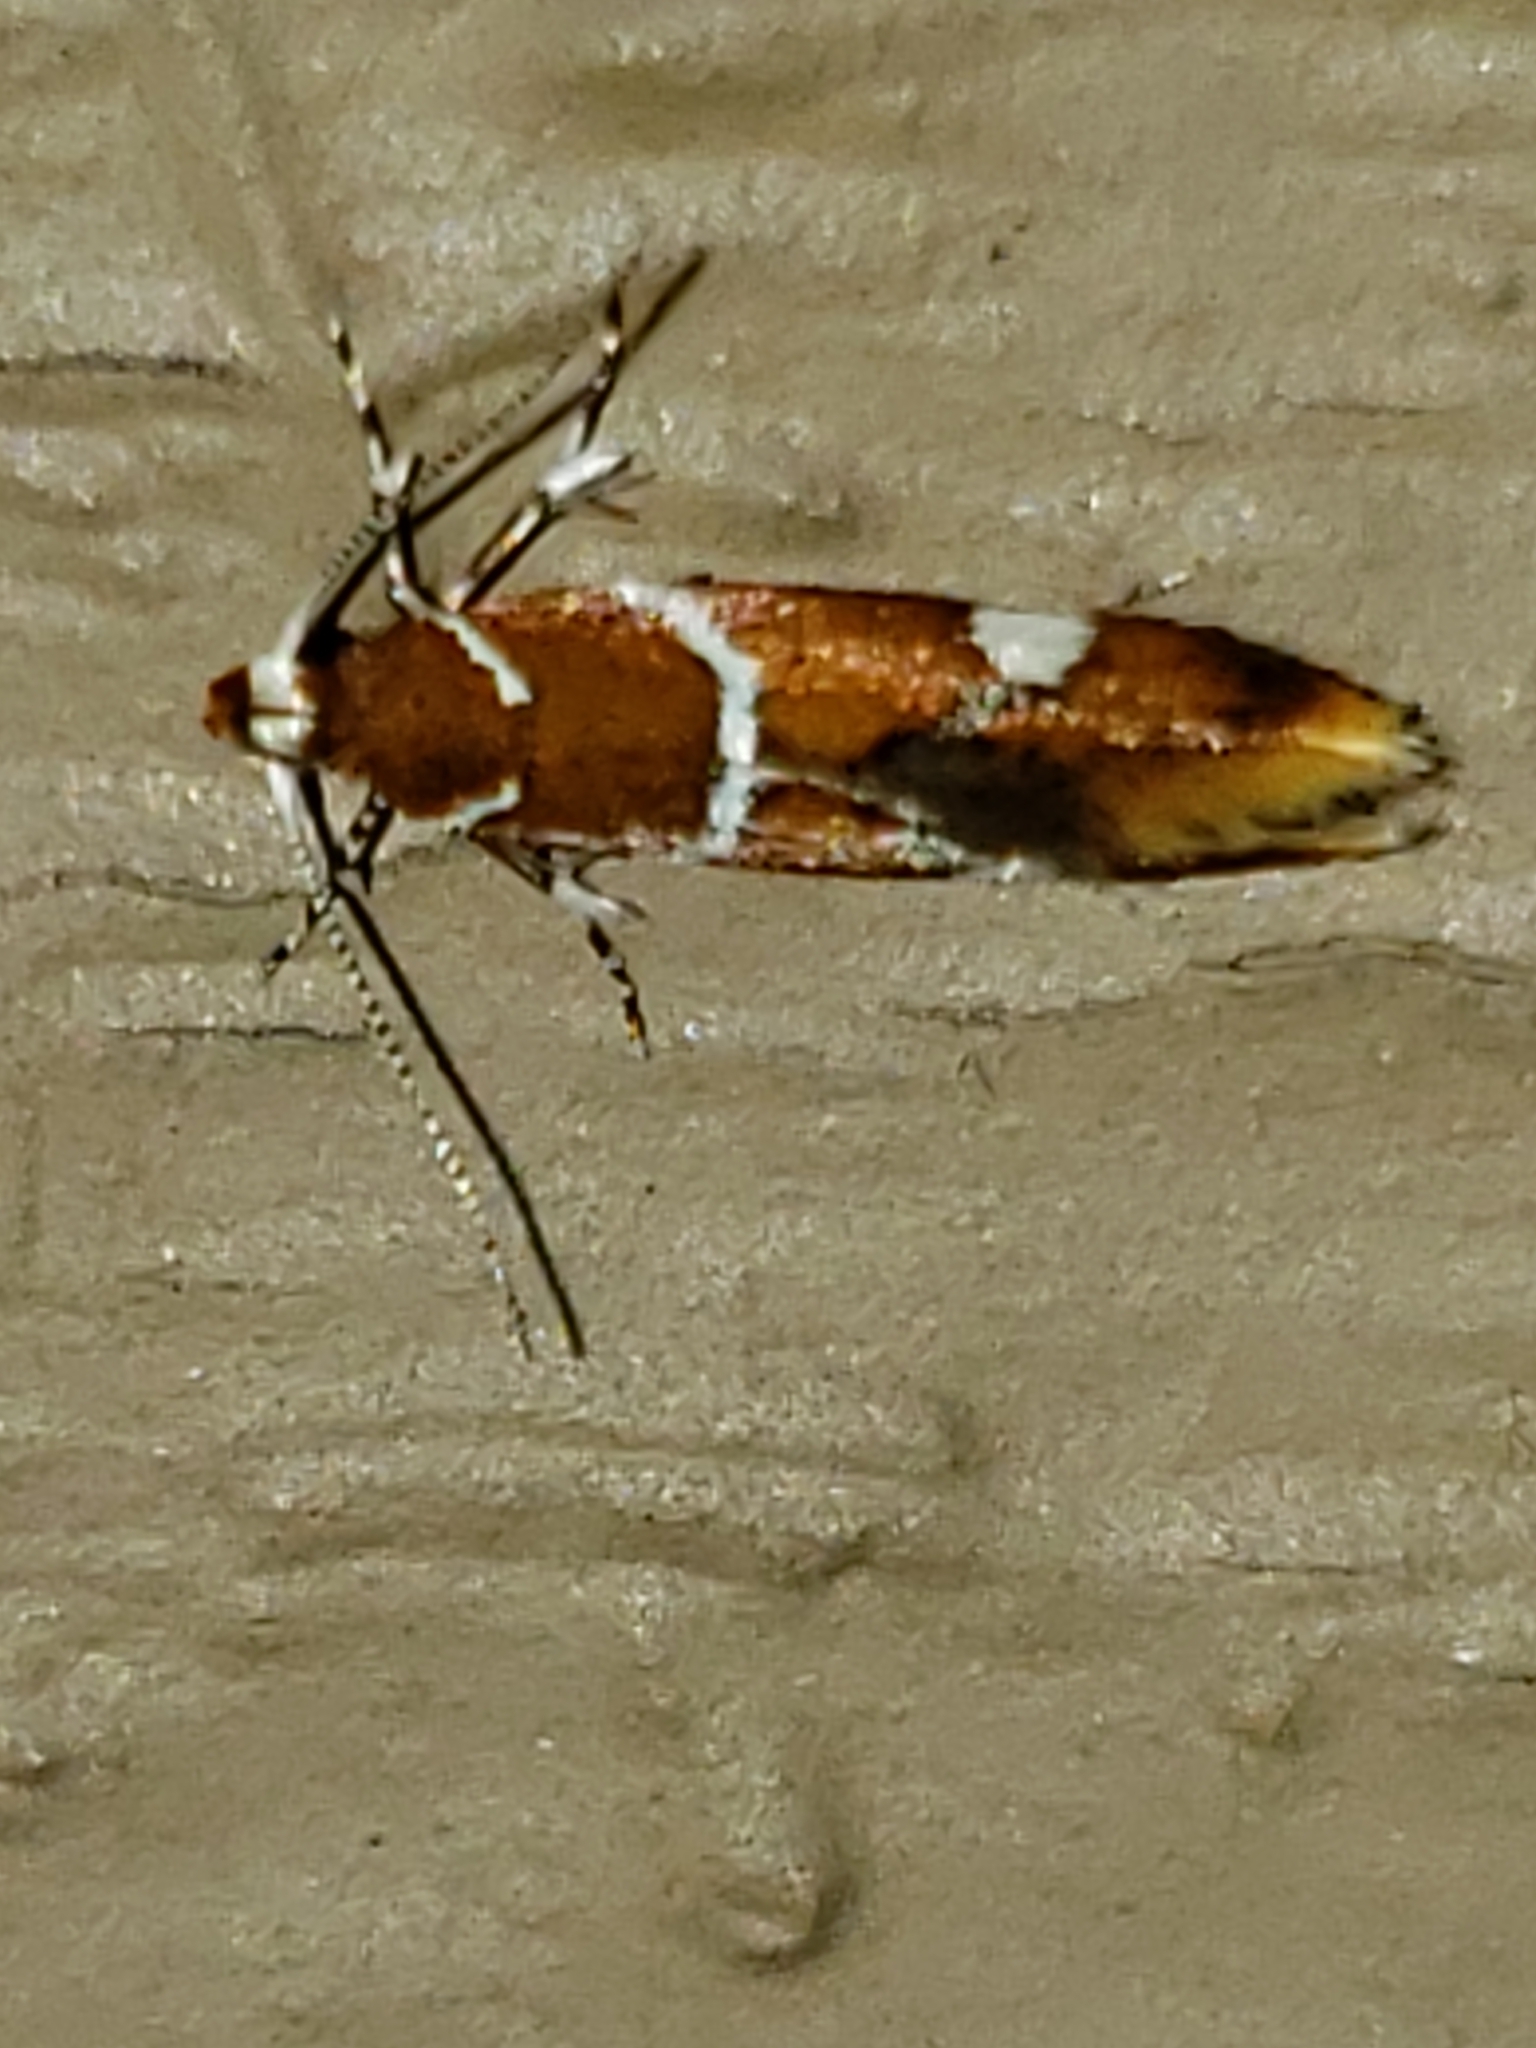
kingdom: Animalia
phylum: Arthropoda
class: Insecta
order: Lepidoptera
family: Oecophoridae
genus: Promalactis
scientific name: Promalactis suzukiella
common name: Moth
